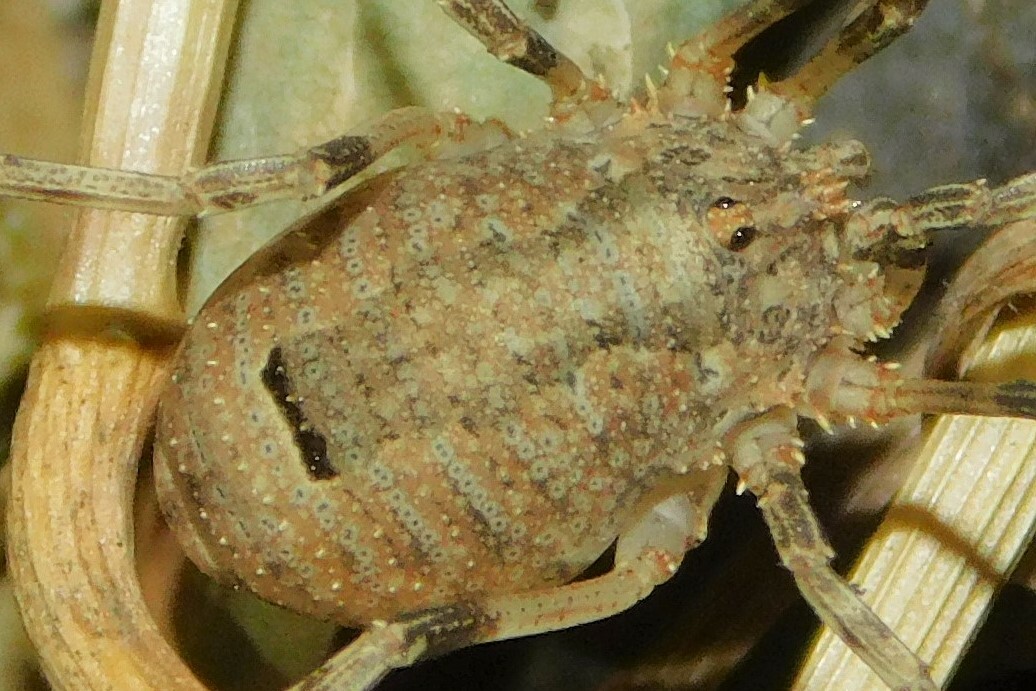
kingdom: Animalia
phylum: Arthropoda
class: Arachnida
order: Opiliones
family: Phalangiidae
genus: Odiellus
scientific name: Odiellus spinosus
